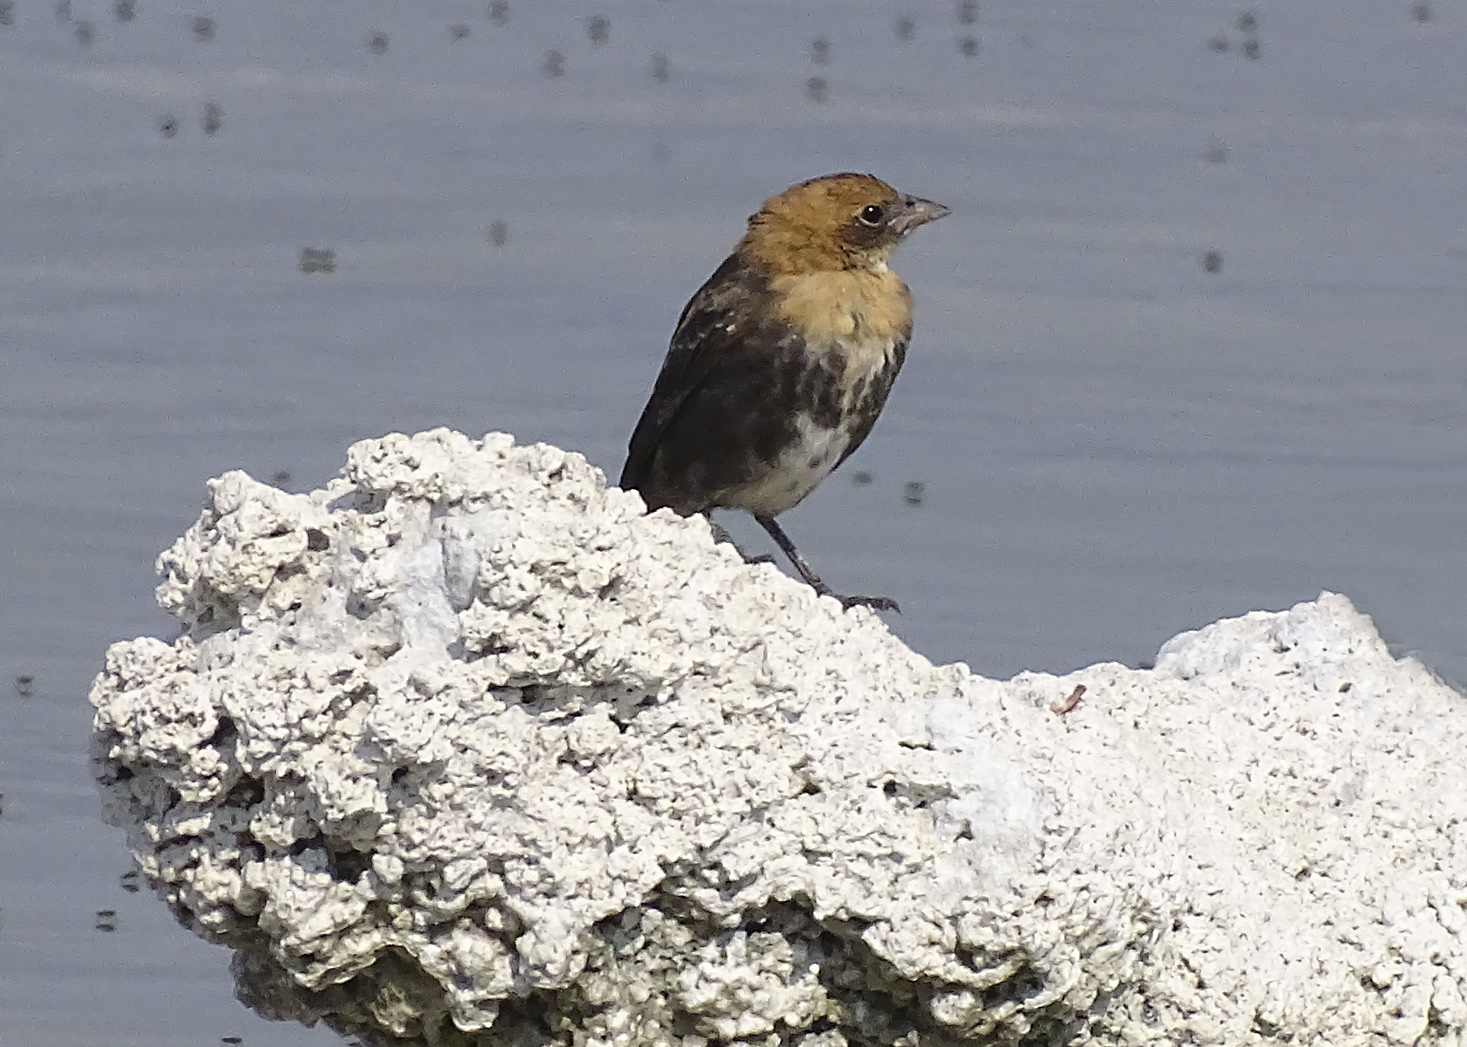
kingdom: Animalia
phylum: Chordata
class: Aves
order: Passeriformes
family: Icteridae
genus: Xanthocephalus
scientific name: Xanthocephalus xanthocephalus
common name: Yellow-headed blackbird
